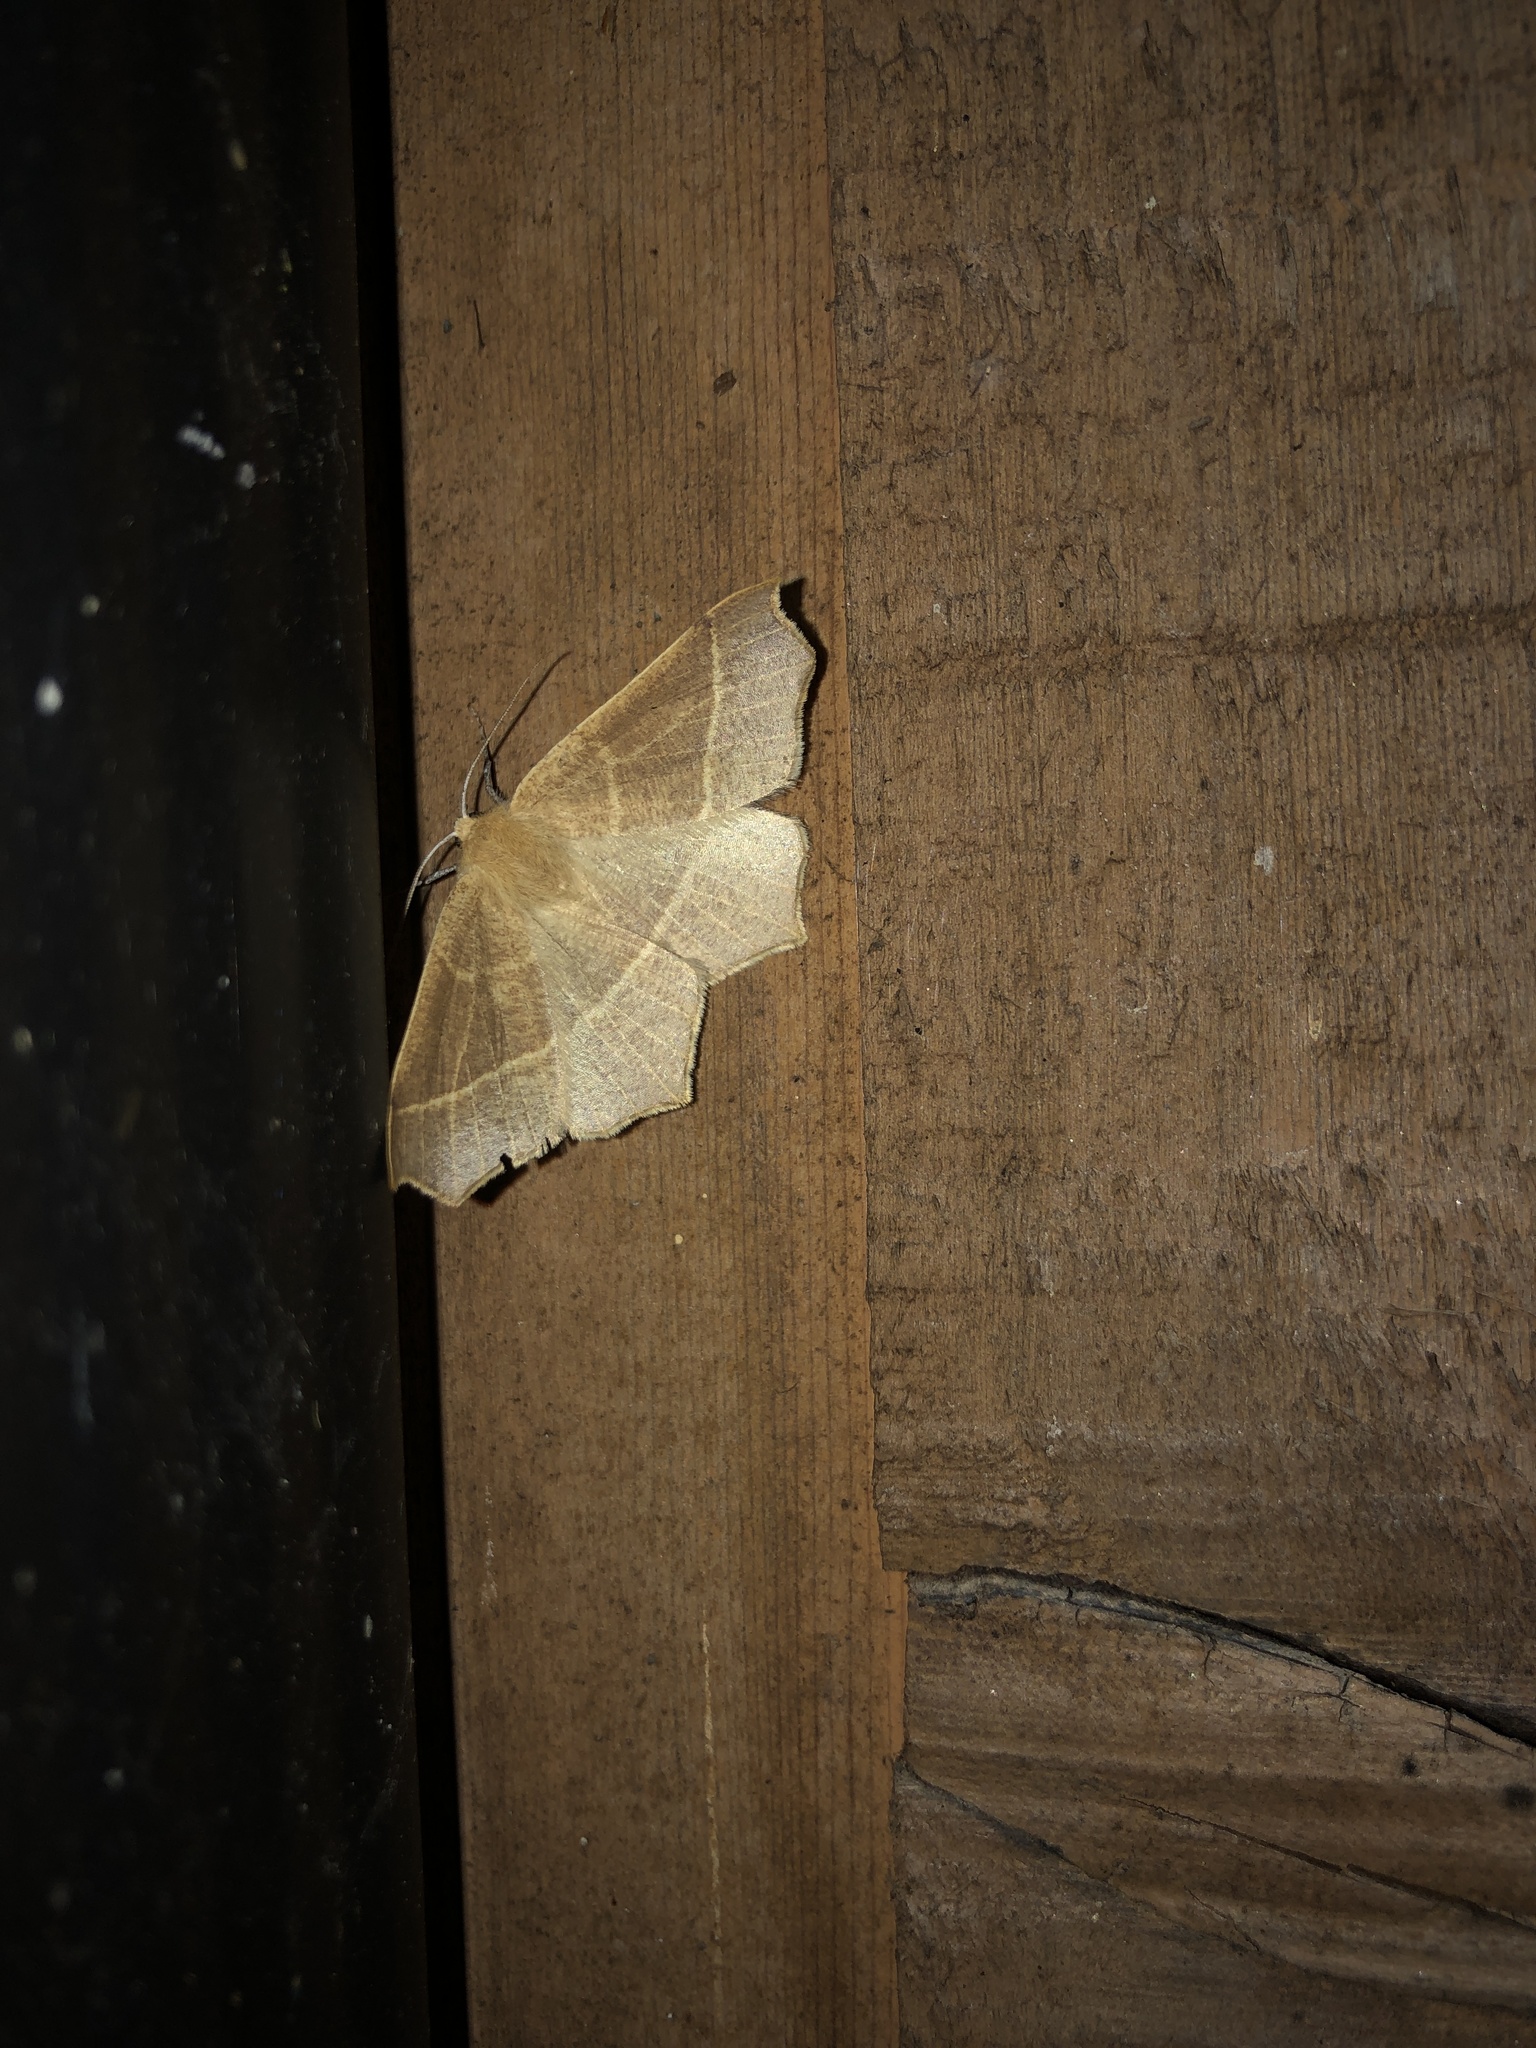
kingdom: Animalia
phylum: Arthropoda
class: Insecta
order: Lepidoptera
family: Geometridae
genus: Tetracis
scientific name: Tetracis cervinaria
